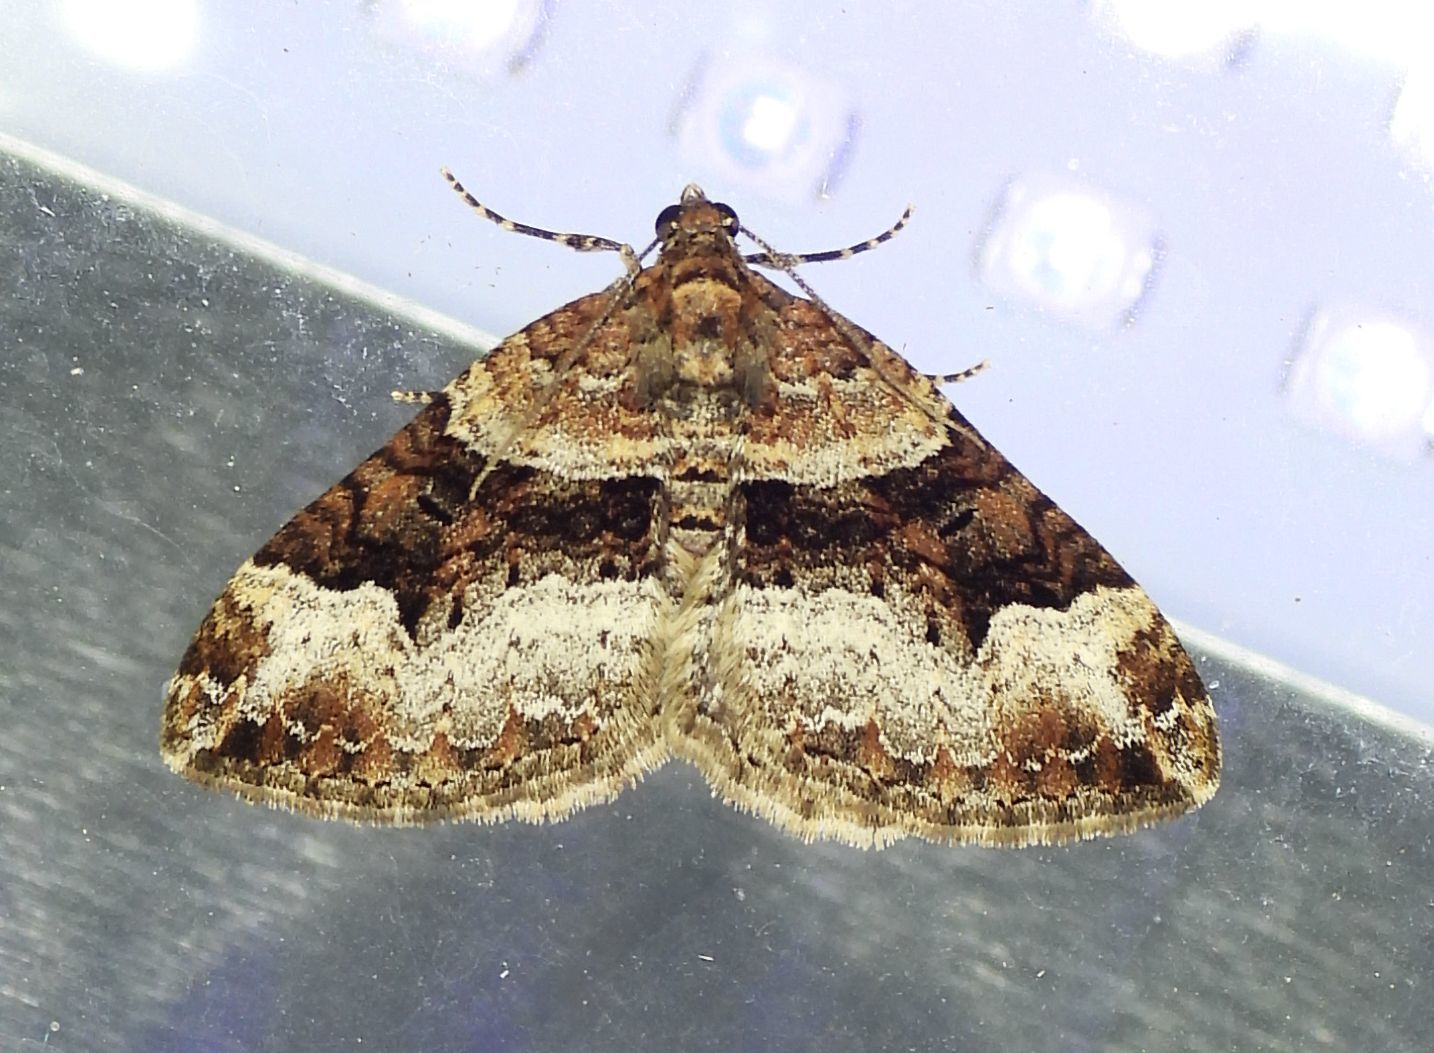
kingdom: Animalia
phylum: Arthropoda
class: Insecta
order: Lepidoptera
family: Geometridae
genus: Xanthorhoe
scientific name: Xanthorhoe lacustrata
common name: Toothed brown carpet
